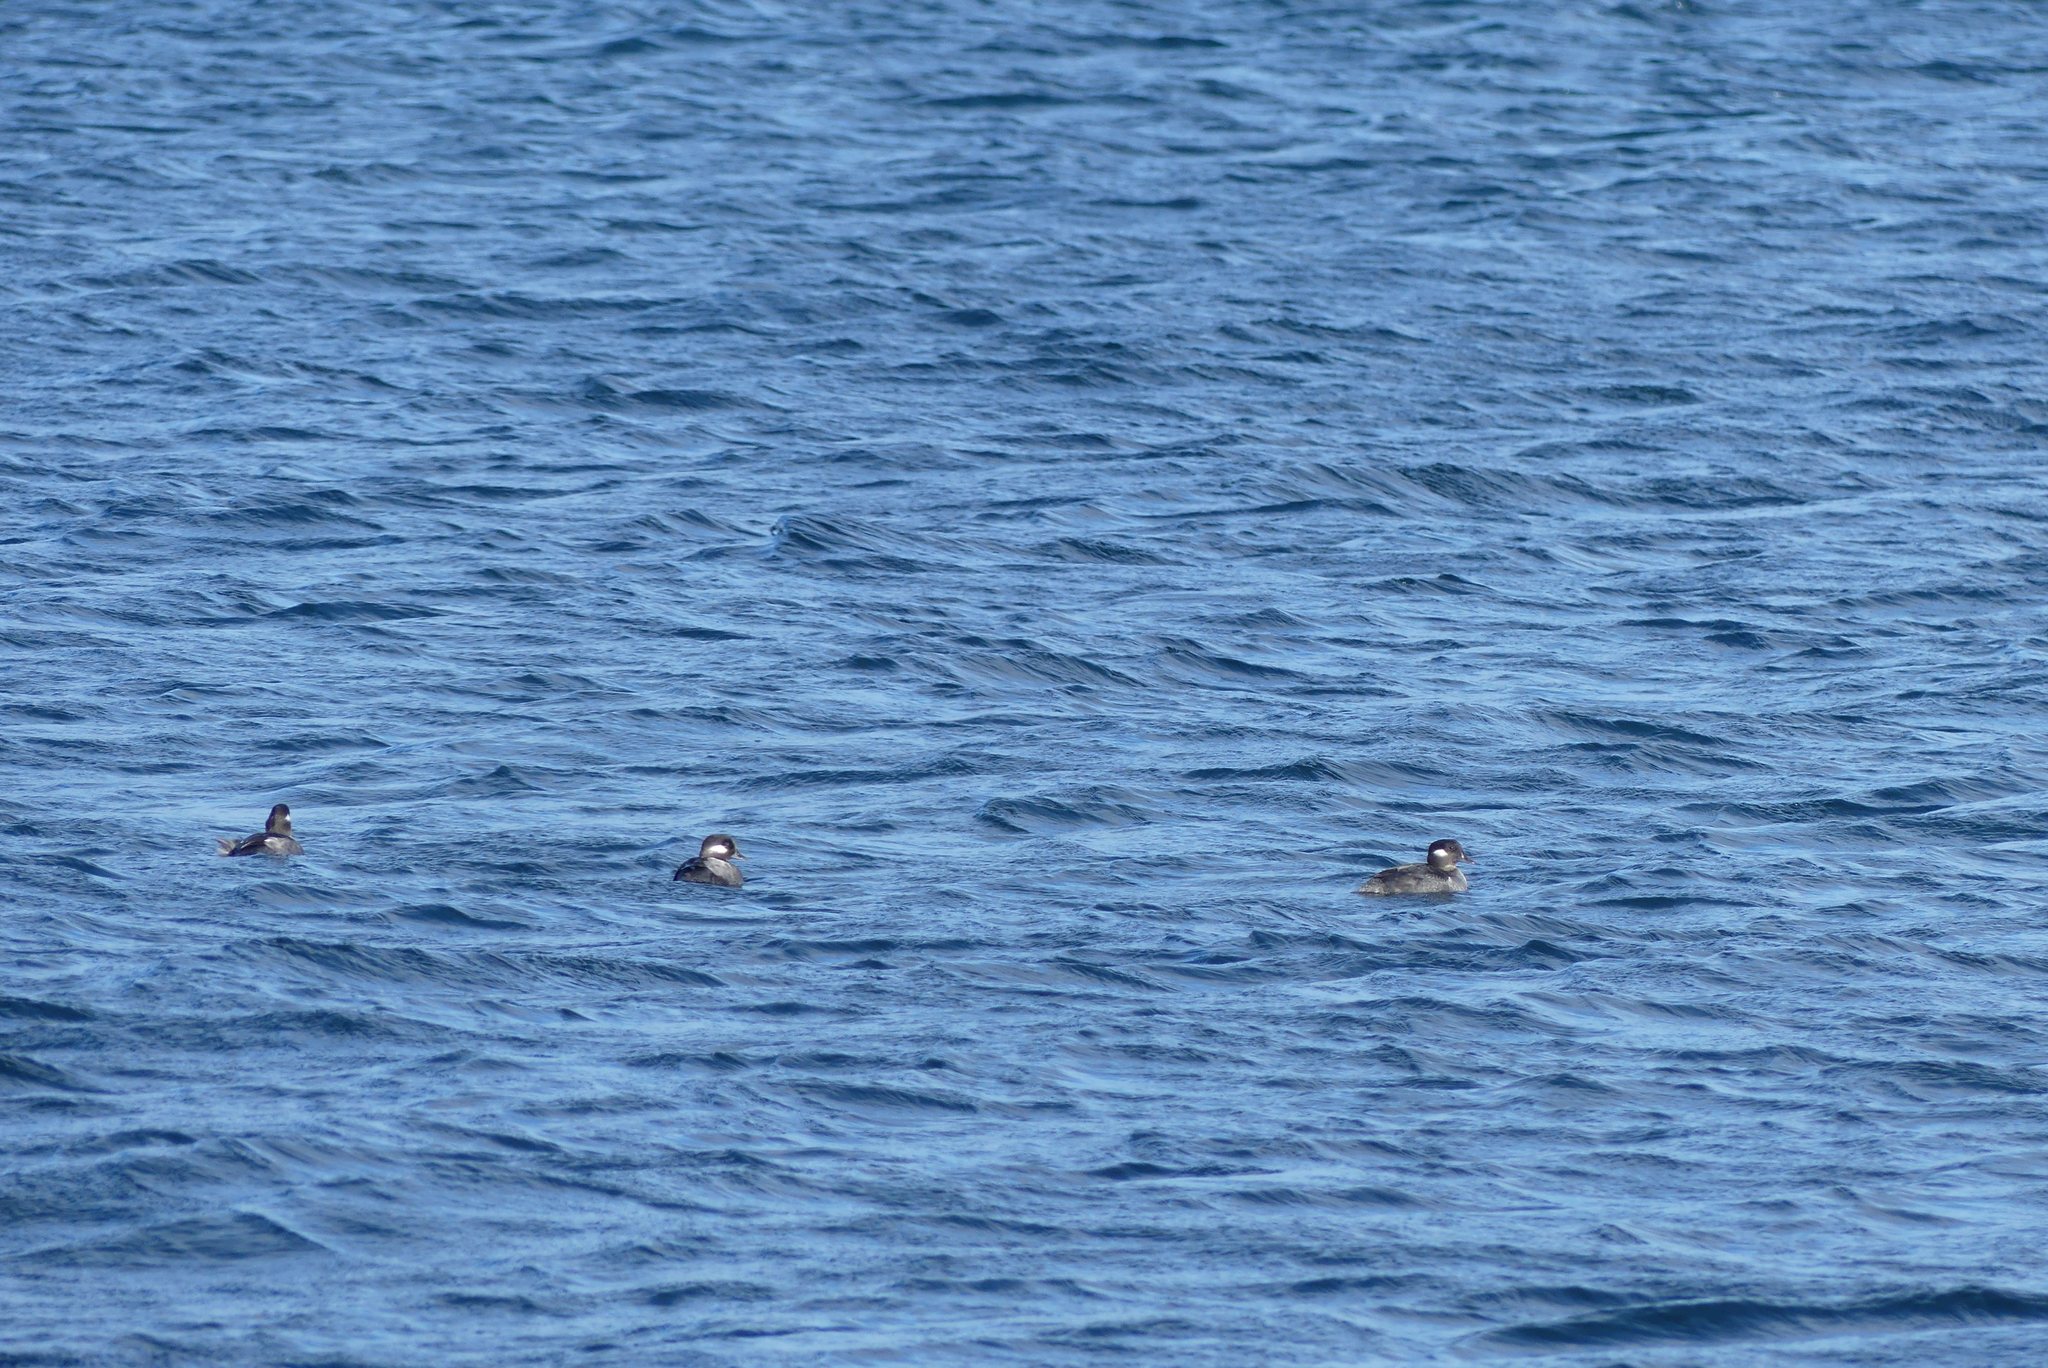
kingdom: Animalia
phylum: Chordata
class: Aves
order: Anseriformes
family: Anatidae
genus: Bucephala
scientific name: Bucephala albeola
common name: Bufflehead
